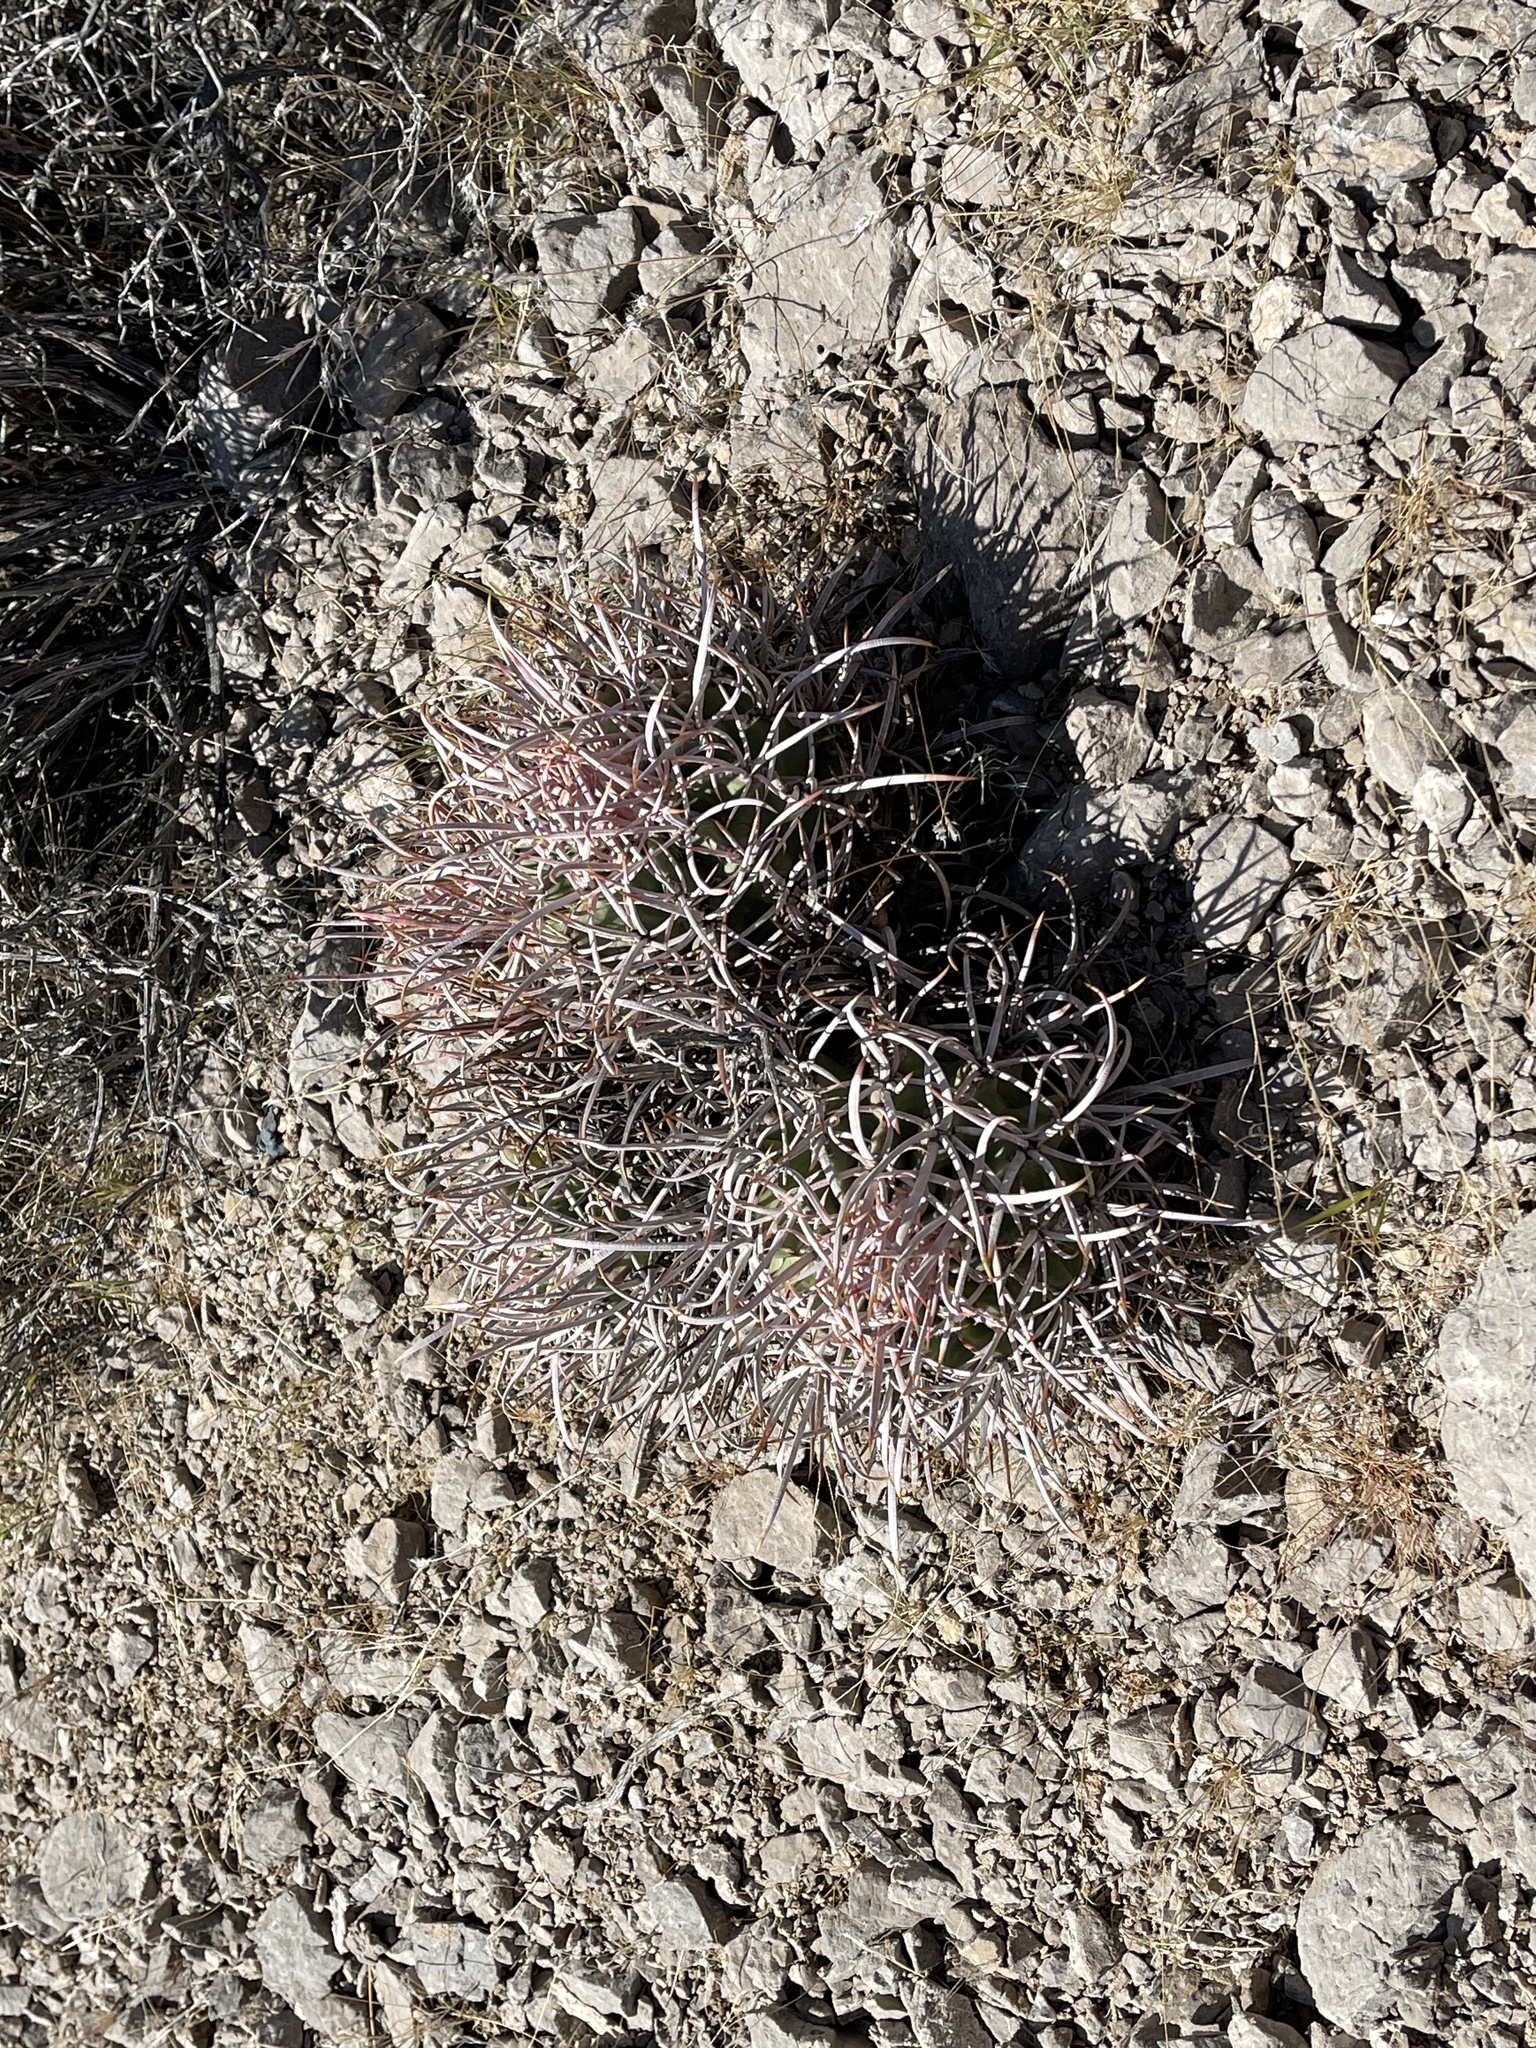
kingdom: Plantae
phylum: Tracheophyta
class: Magnoliopsida
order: Caryophyllales
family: Cactaceae
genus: Echinocactus
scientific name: Echinocactus polycephalus
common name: Cottontop cactus
